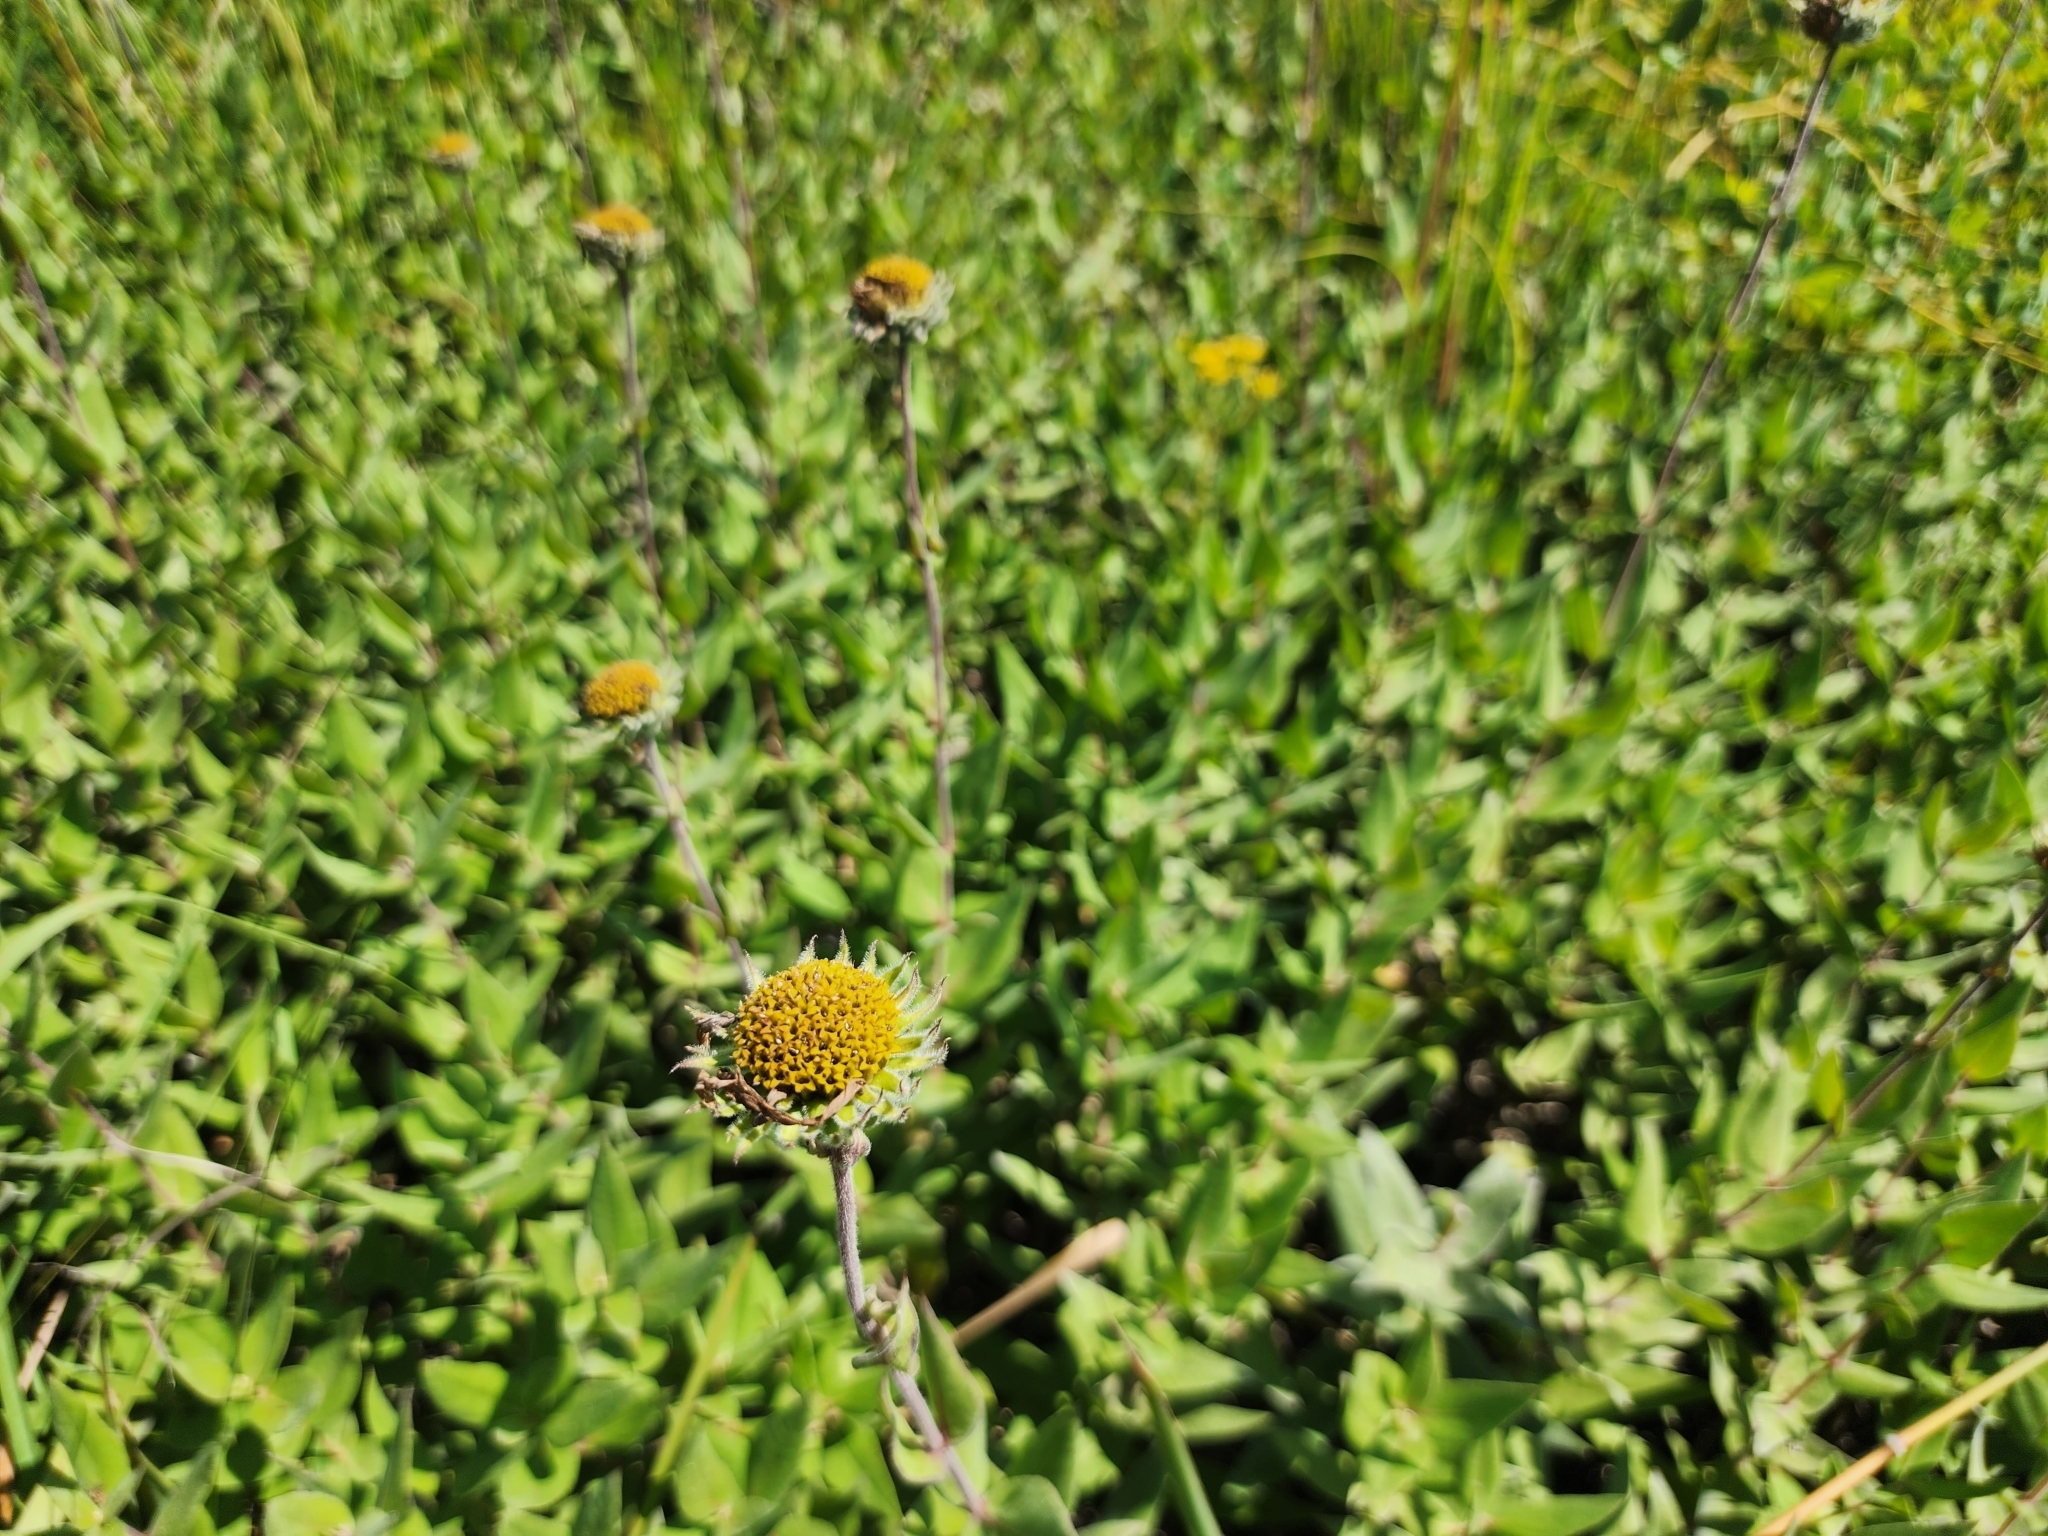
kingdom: Plantae
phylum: Tracheophyta
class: Magnoliopsida
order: Asterales
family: Asteraceae
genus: Helianthus
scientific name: Helianthus mollis
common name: Ashy sunflower
